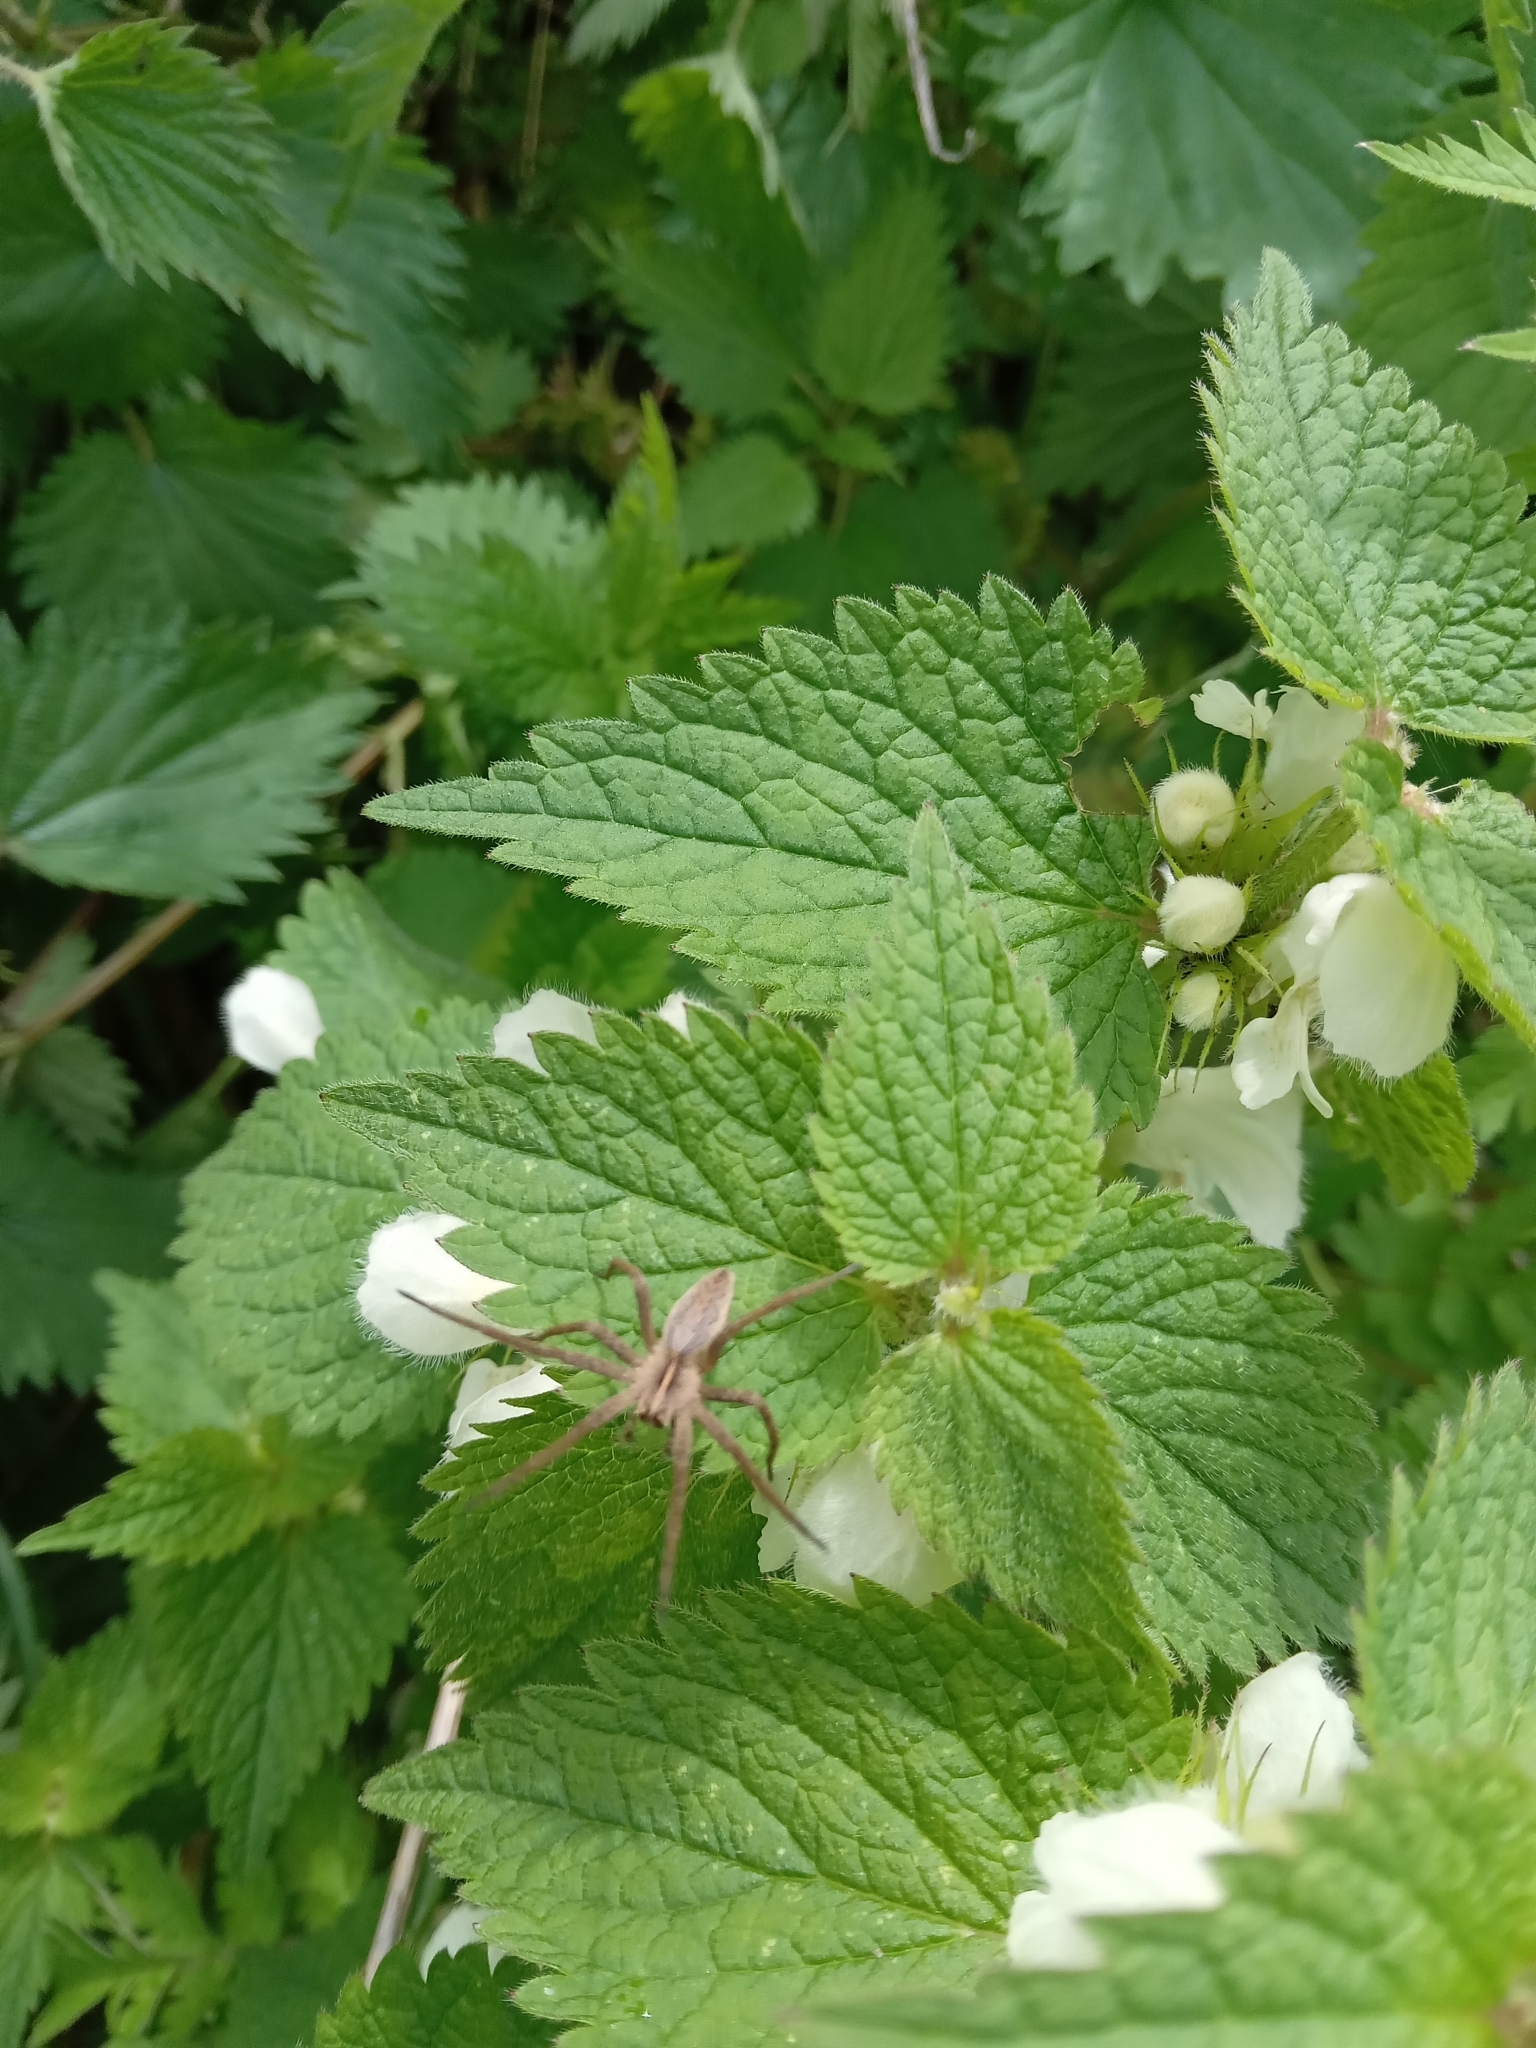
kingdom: Animalia
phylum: Arthropoda
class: Arachnida
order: Araneae
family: Pisauridae
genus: Pisaura
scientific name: Pisaura mirabilis
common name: Tent spider
